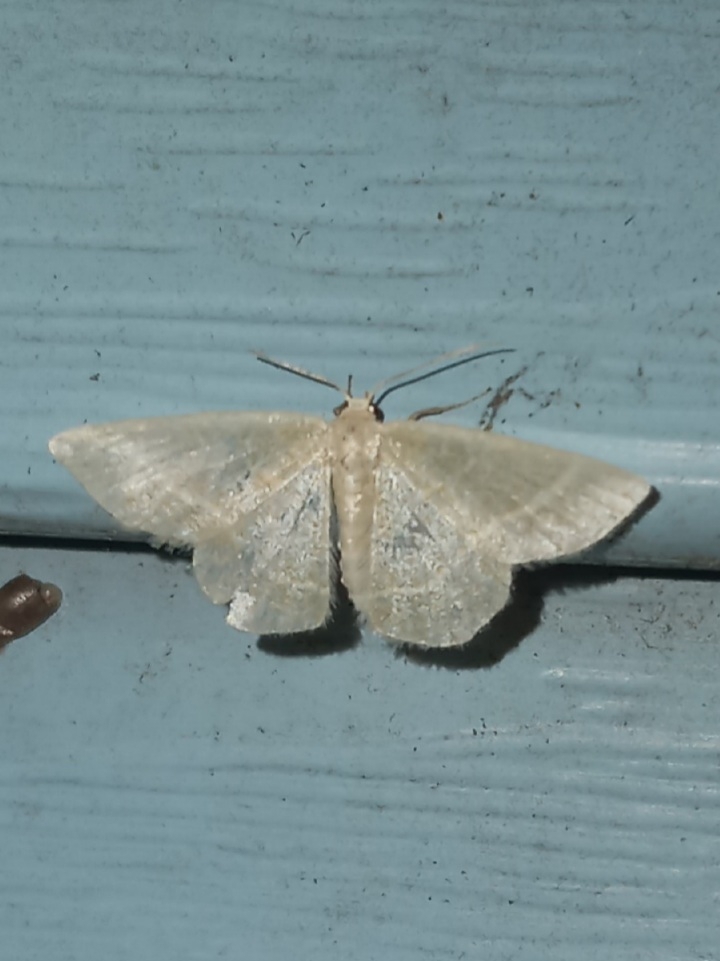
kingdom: Animalia
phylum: Arthropoda
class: Insecta
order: Lepidoptera
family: Geometridae
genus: Chlorochlamys
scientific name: Chlorochlamys chloroleucaria
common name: Blackberry looper
